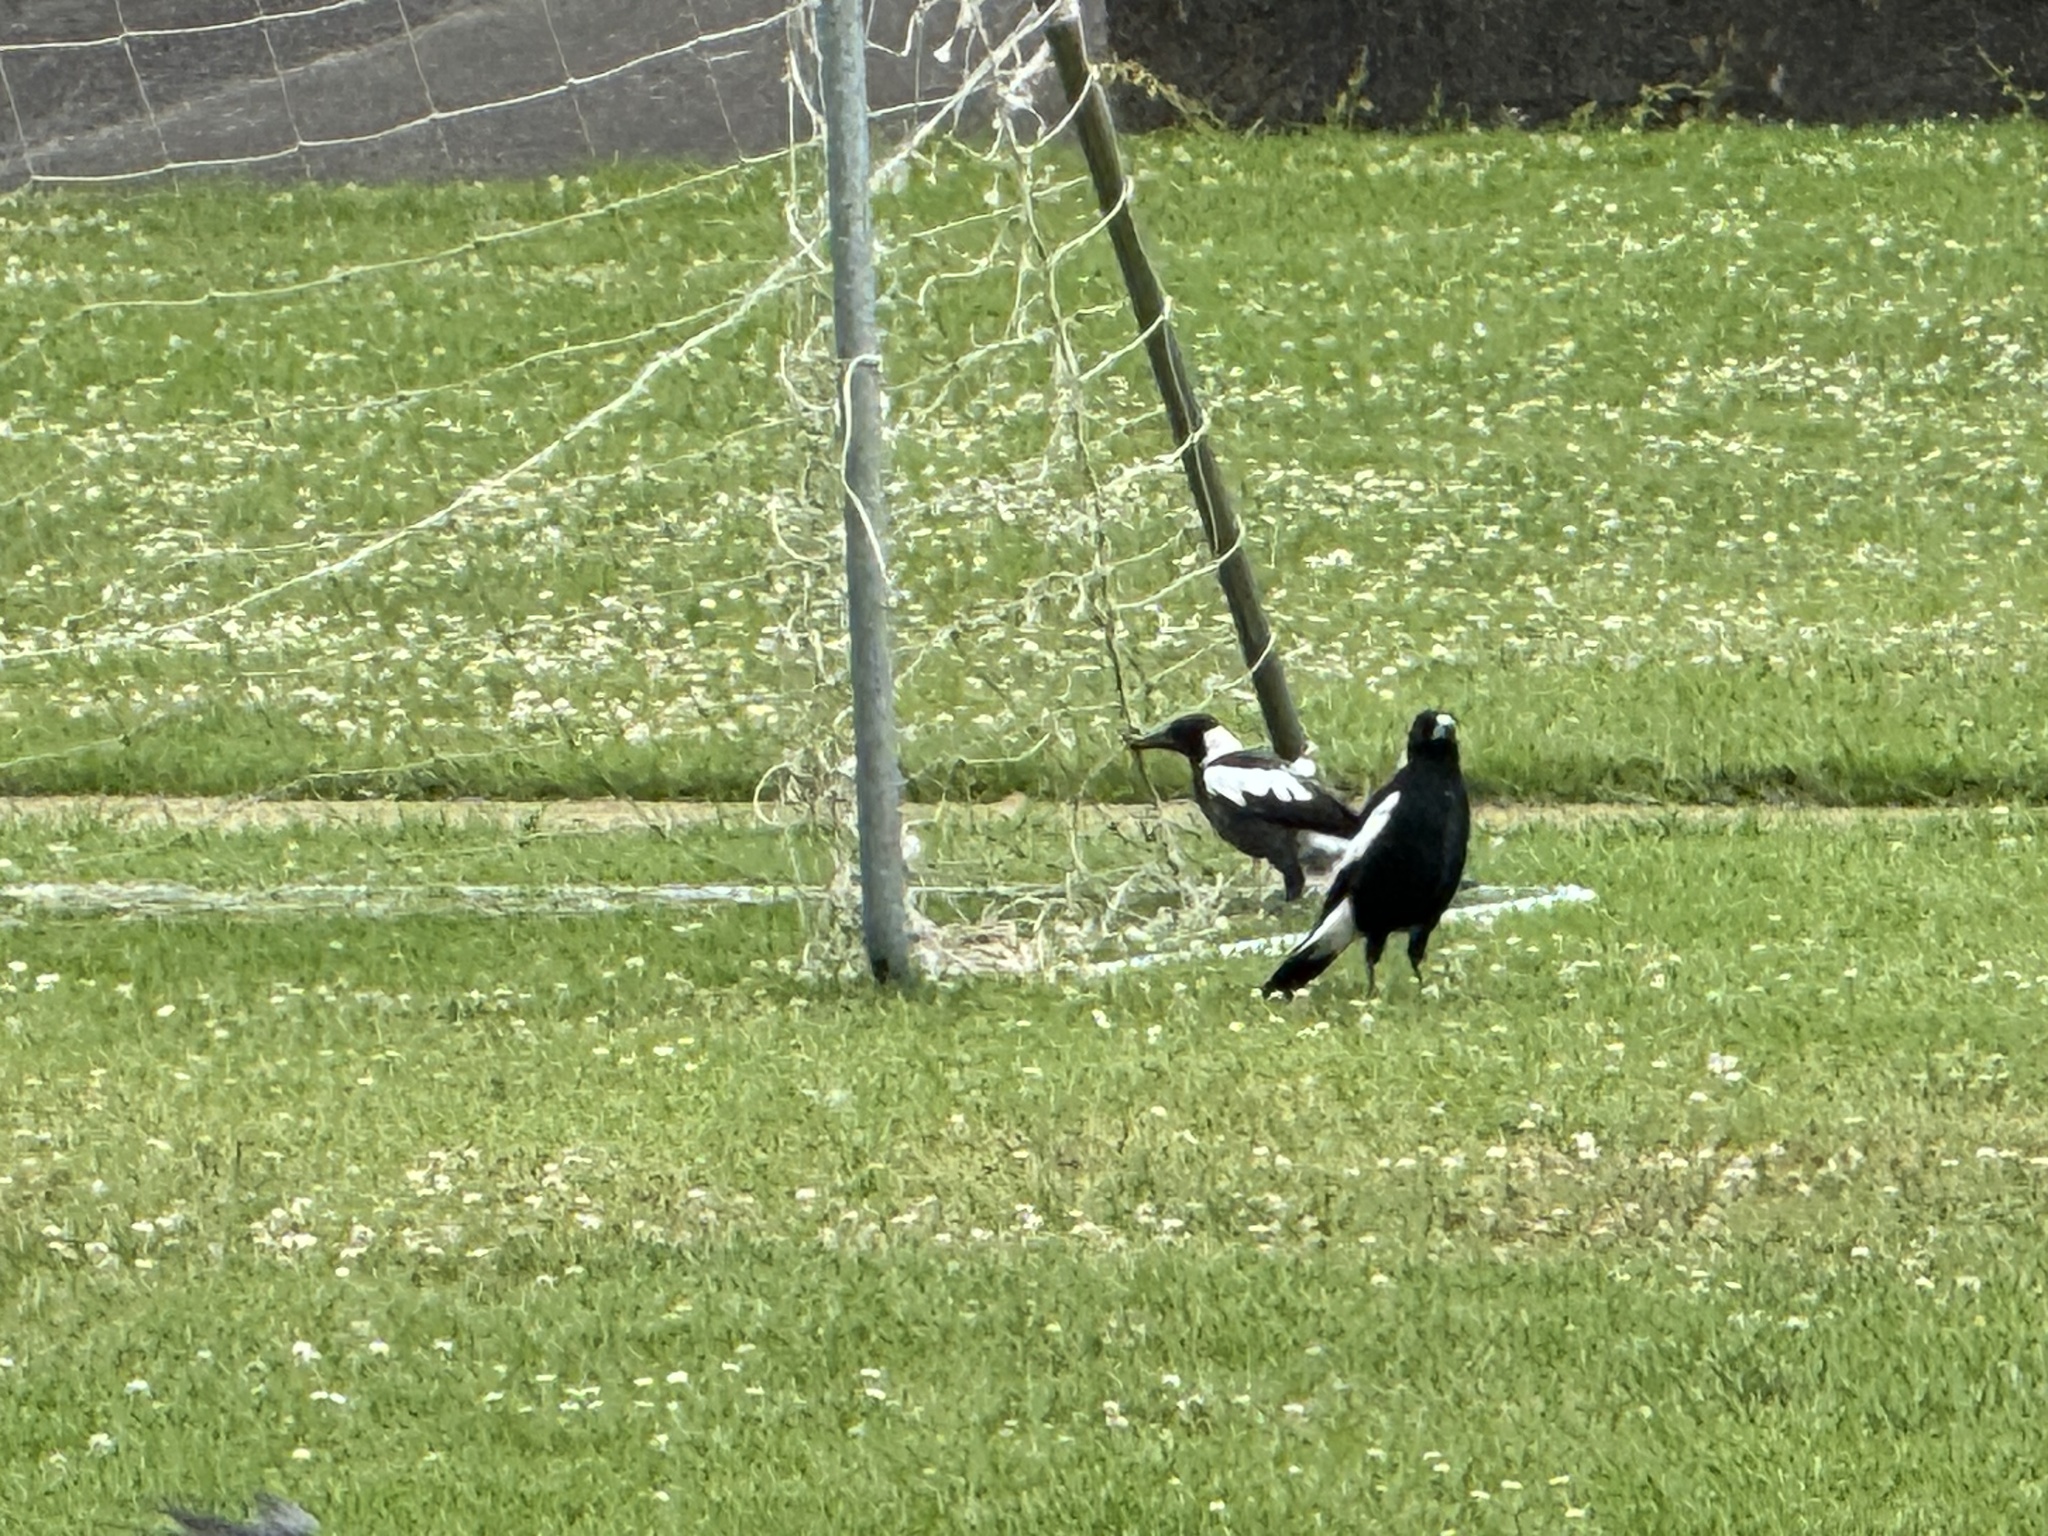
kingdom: Animalia
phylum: Chordata
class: Aves
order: Passeriformes
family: Cracticidae
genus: Gymnorhina
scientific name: Gymnorhina tibicen
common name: Australian magpie
